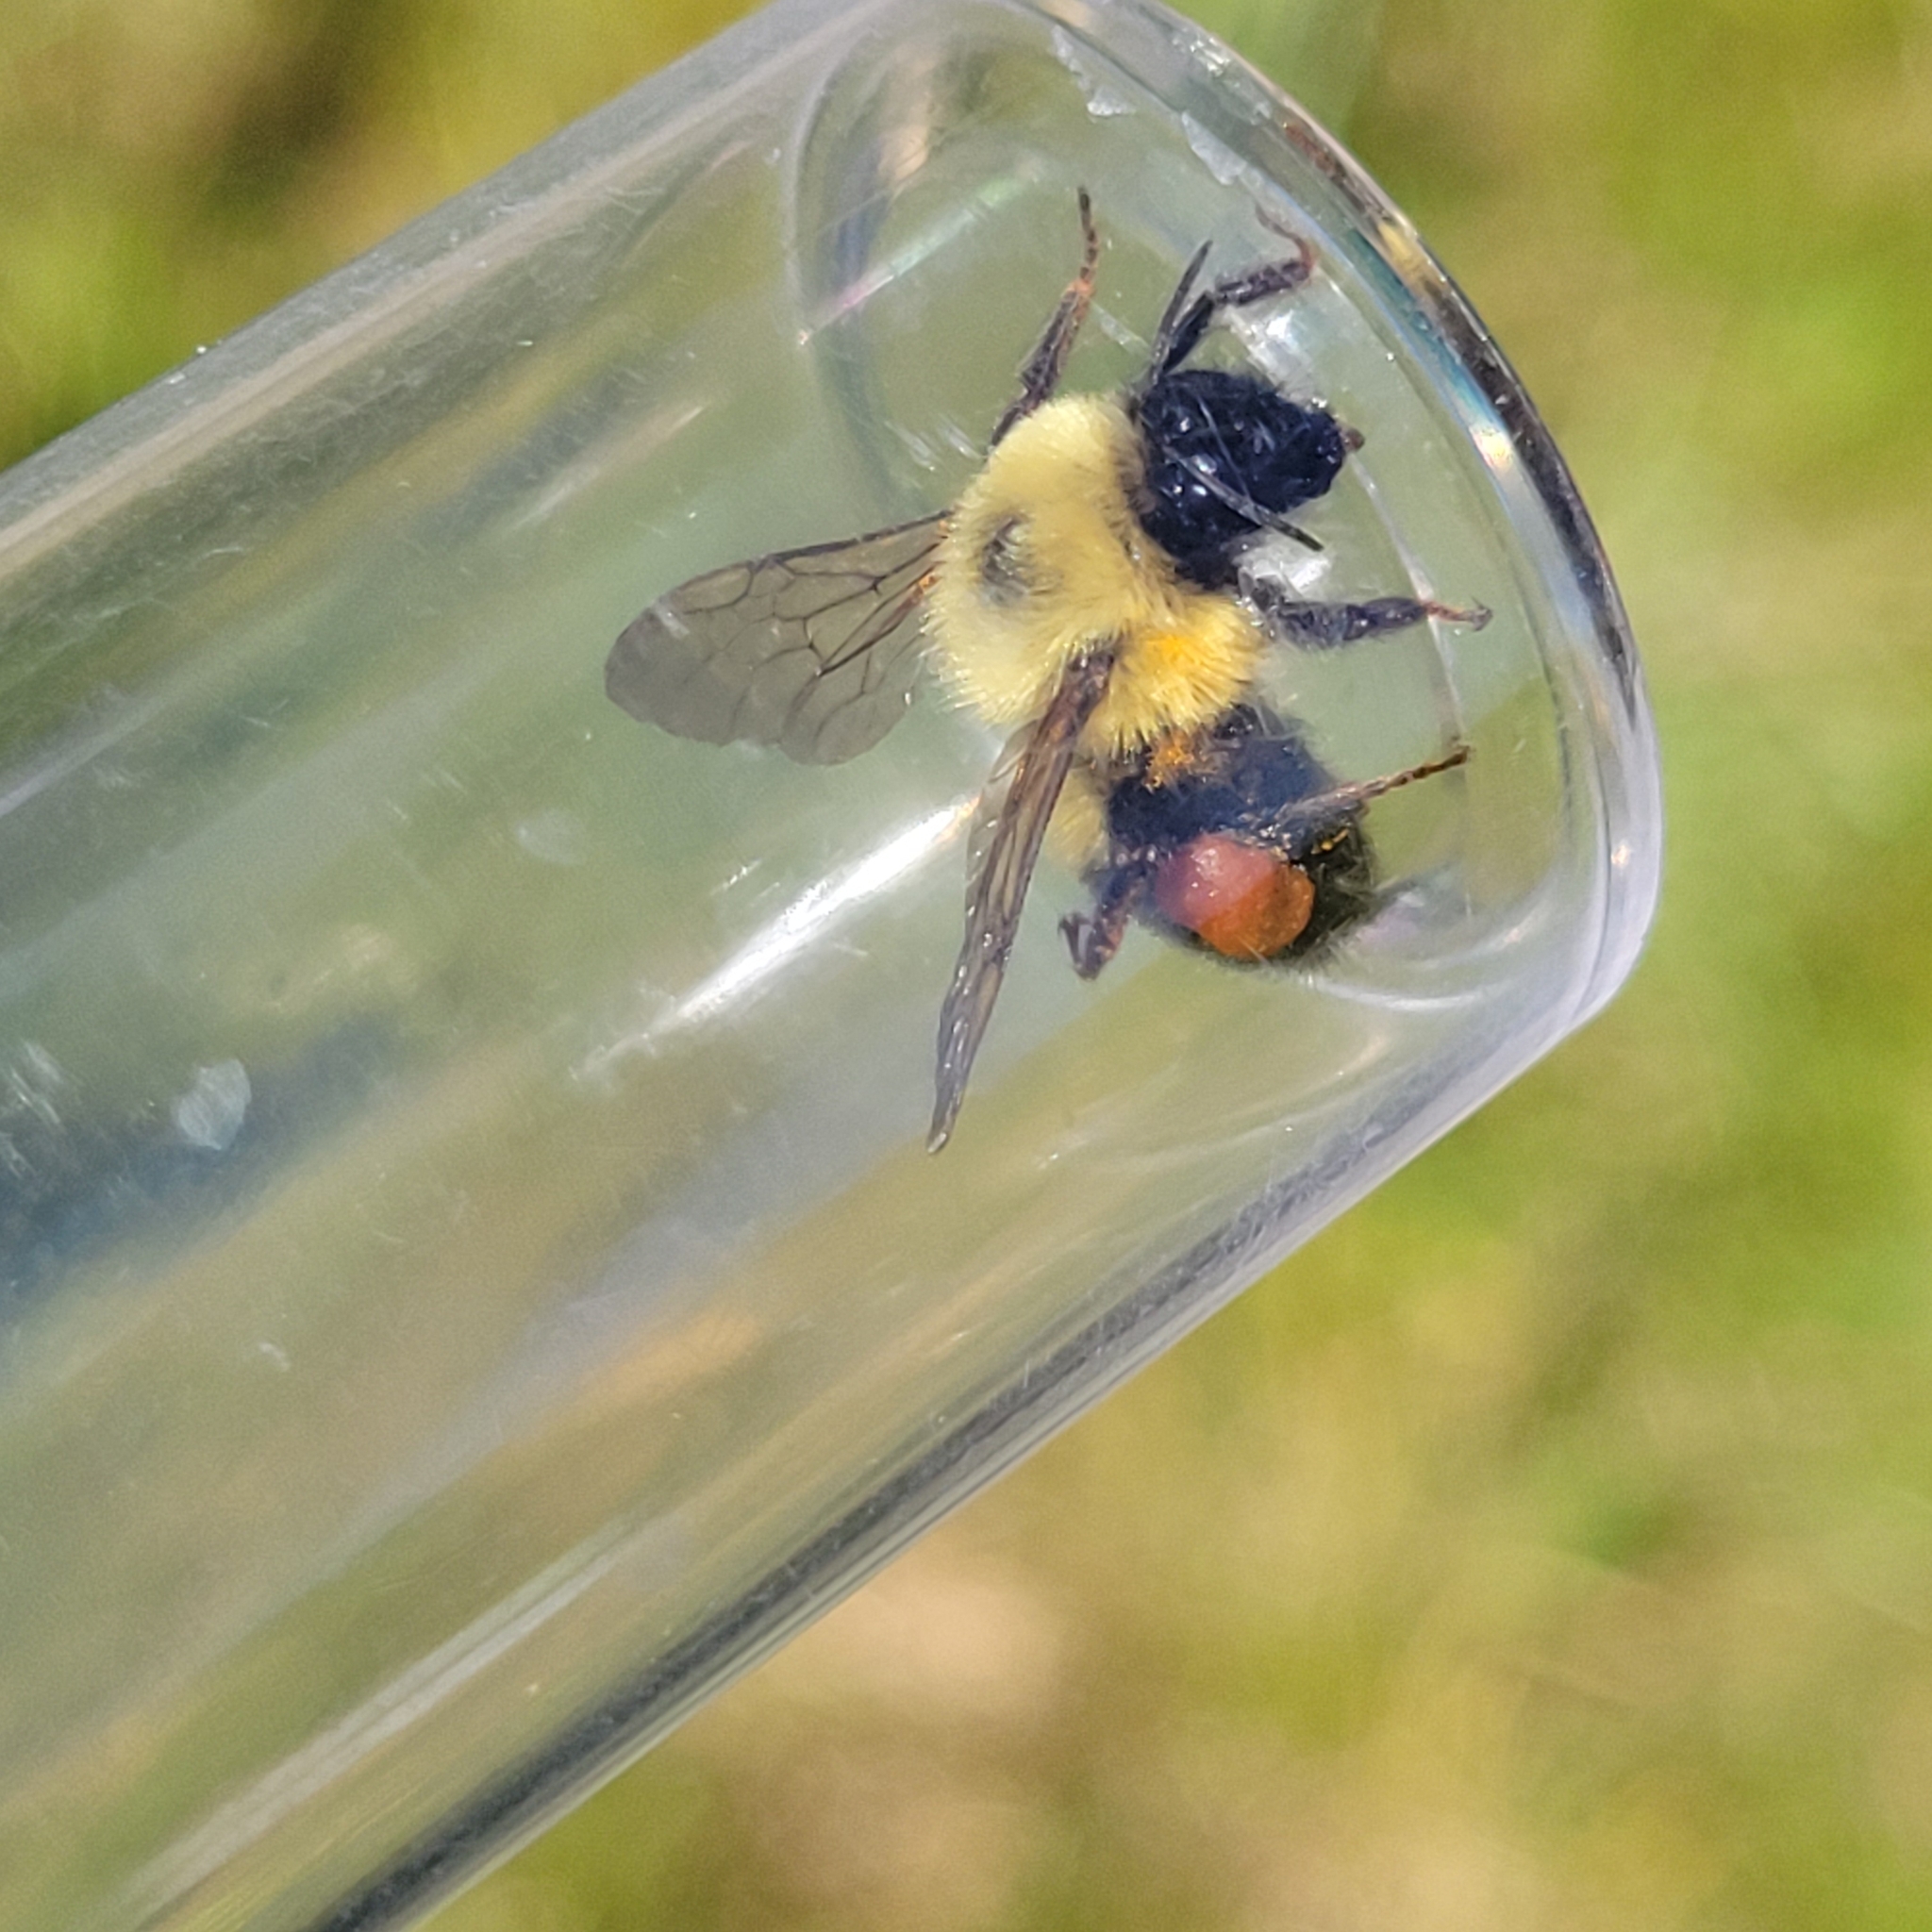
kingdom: Animalia
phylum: Arthropoda
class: Insecta
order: Hymenoptera
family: Apidae
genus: Bombus
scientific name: Bombus bimaculatus
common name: Two-spotted bumble bee
